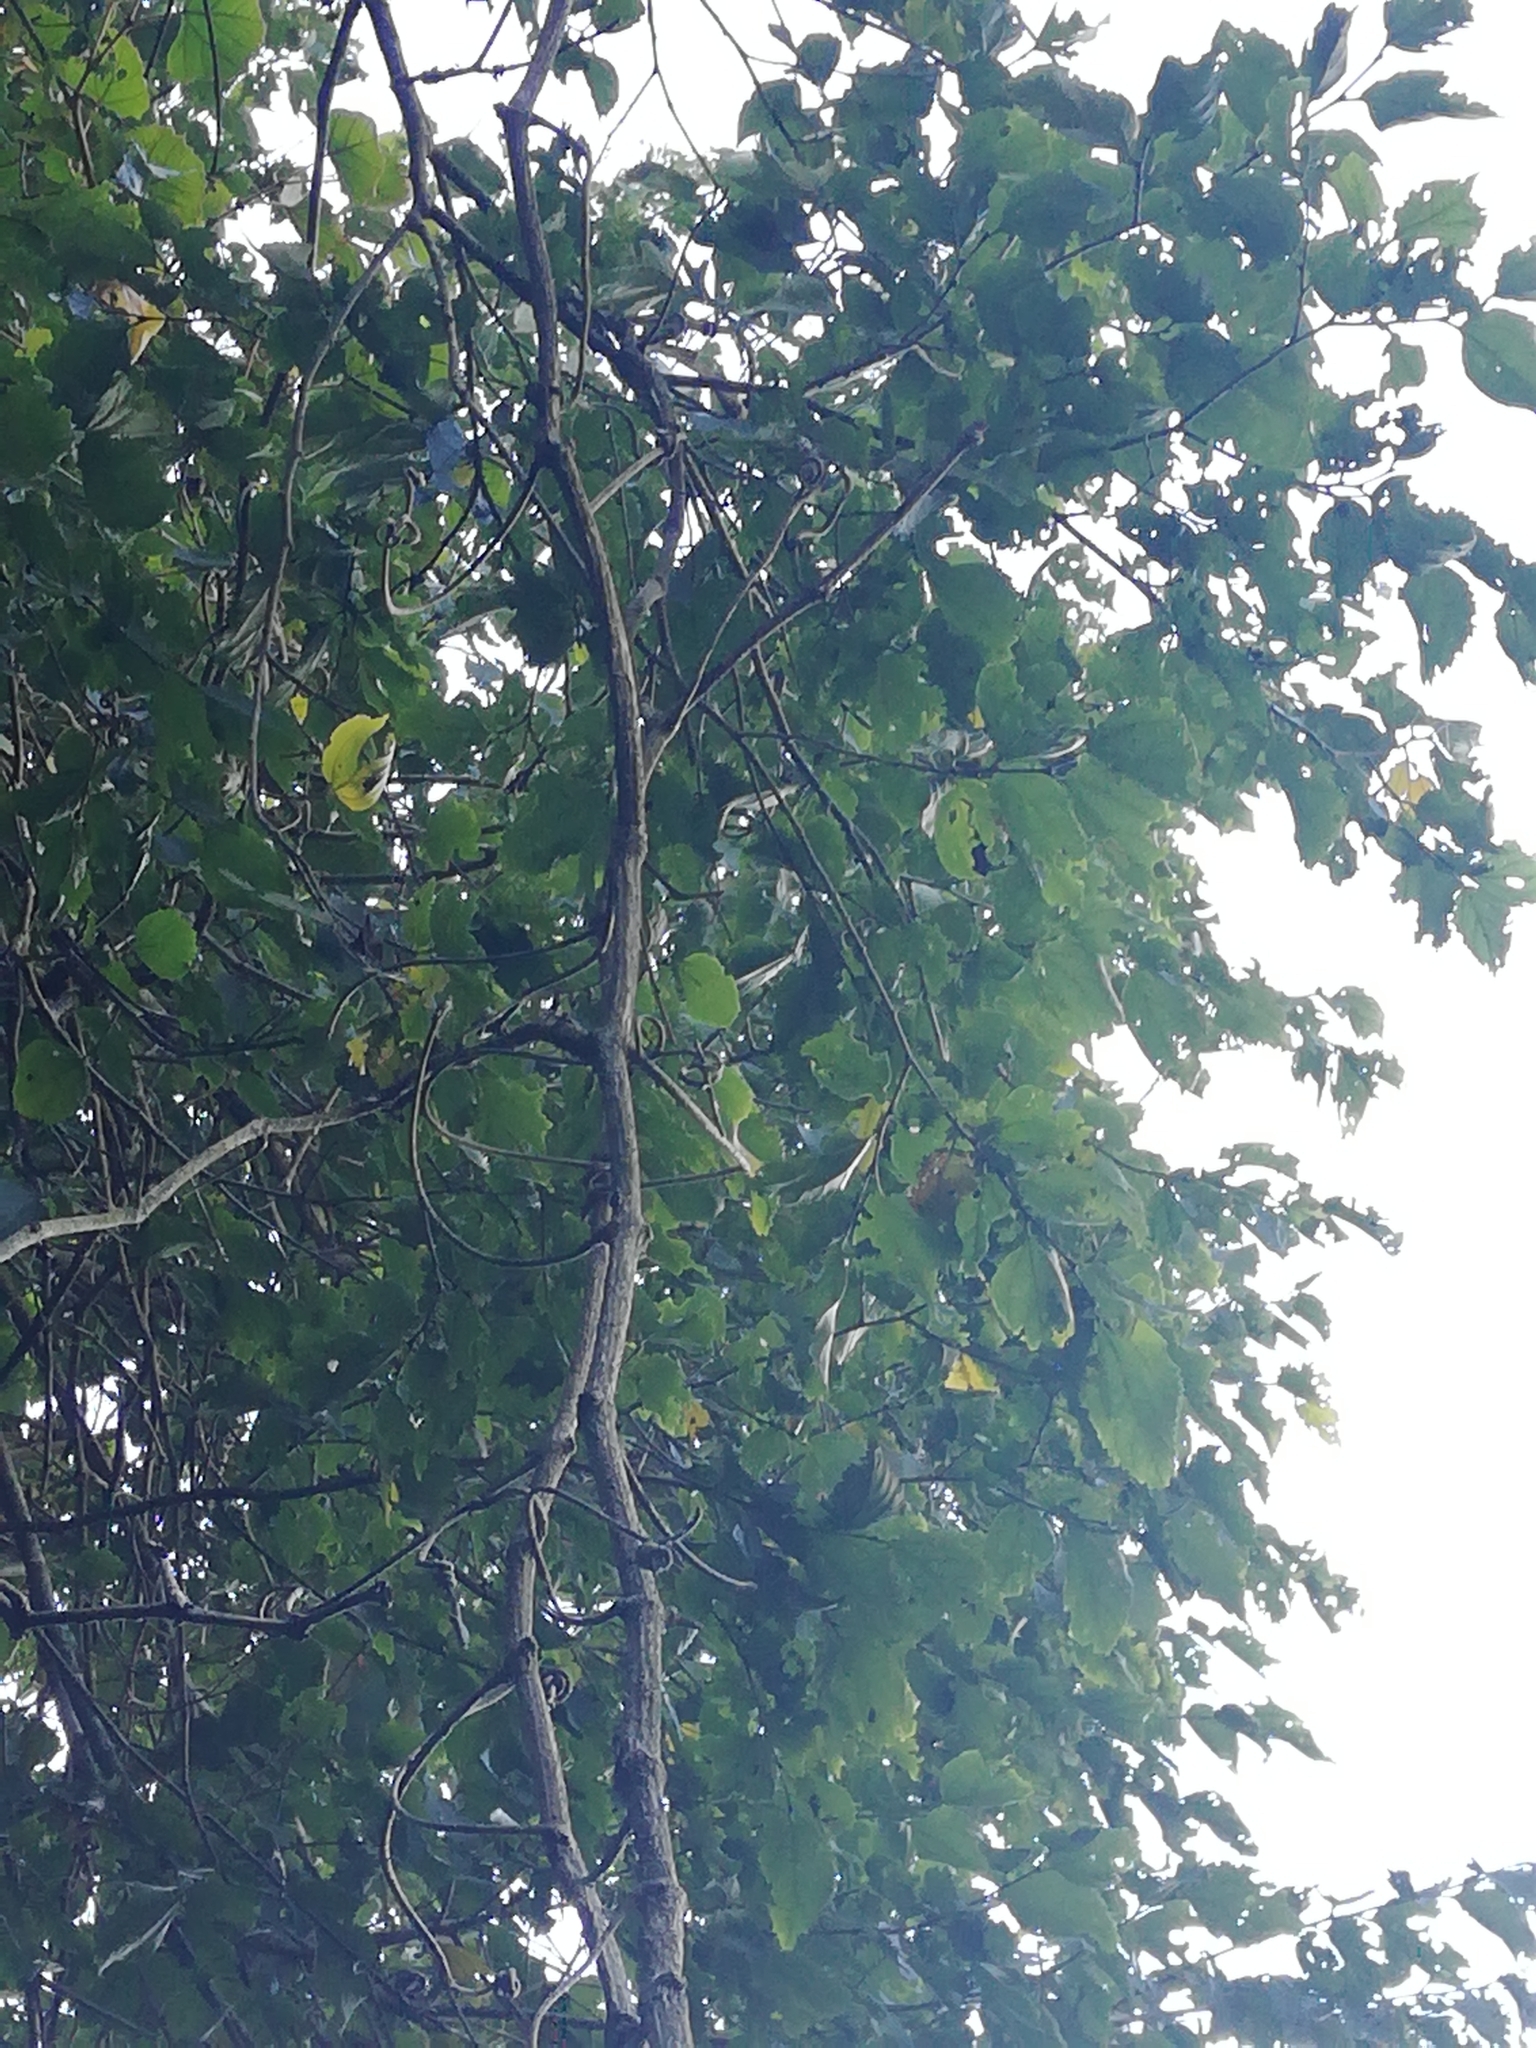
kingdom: Plantae
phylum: Tracheophyta
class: Magnoliopsida
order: Rosales
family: Cannabaceae
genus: Celtis
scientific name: Celtis africana
